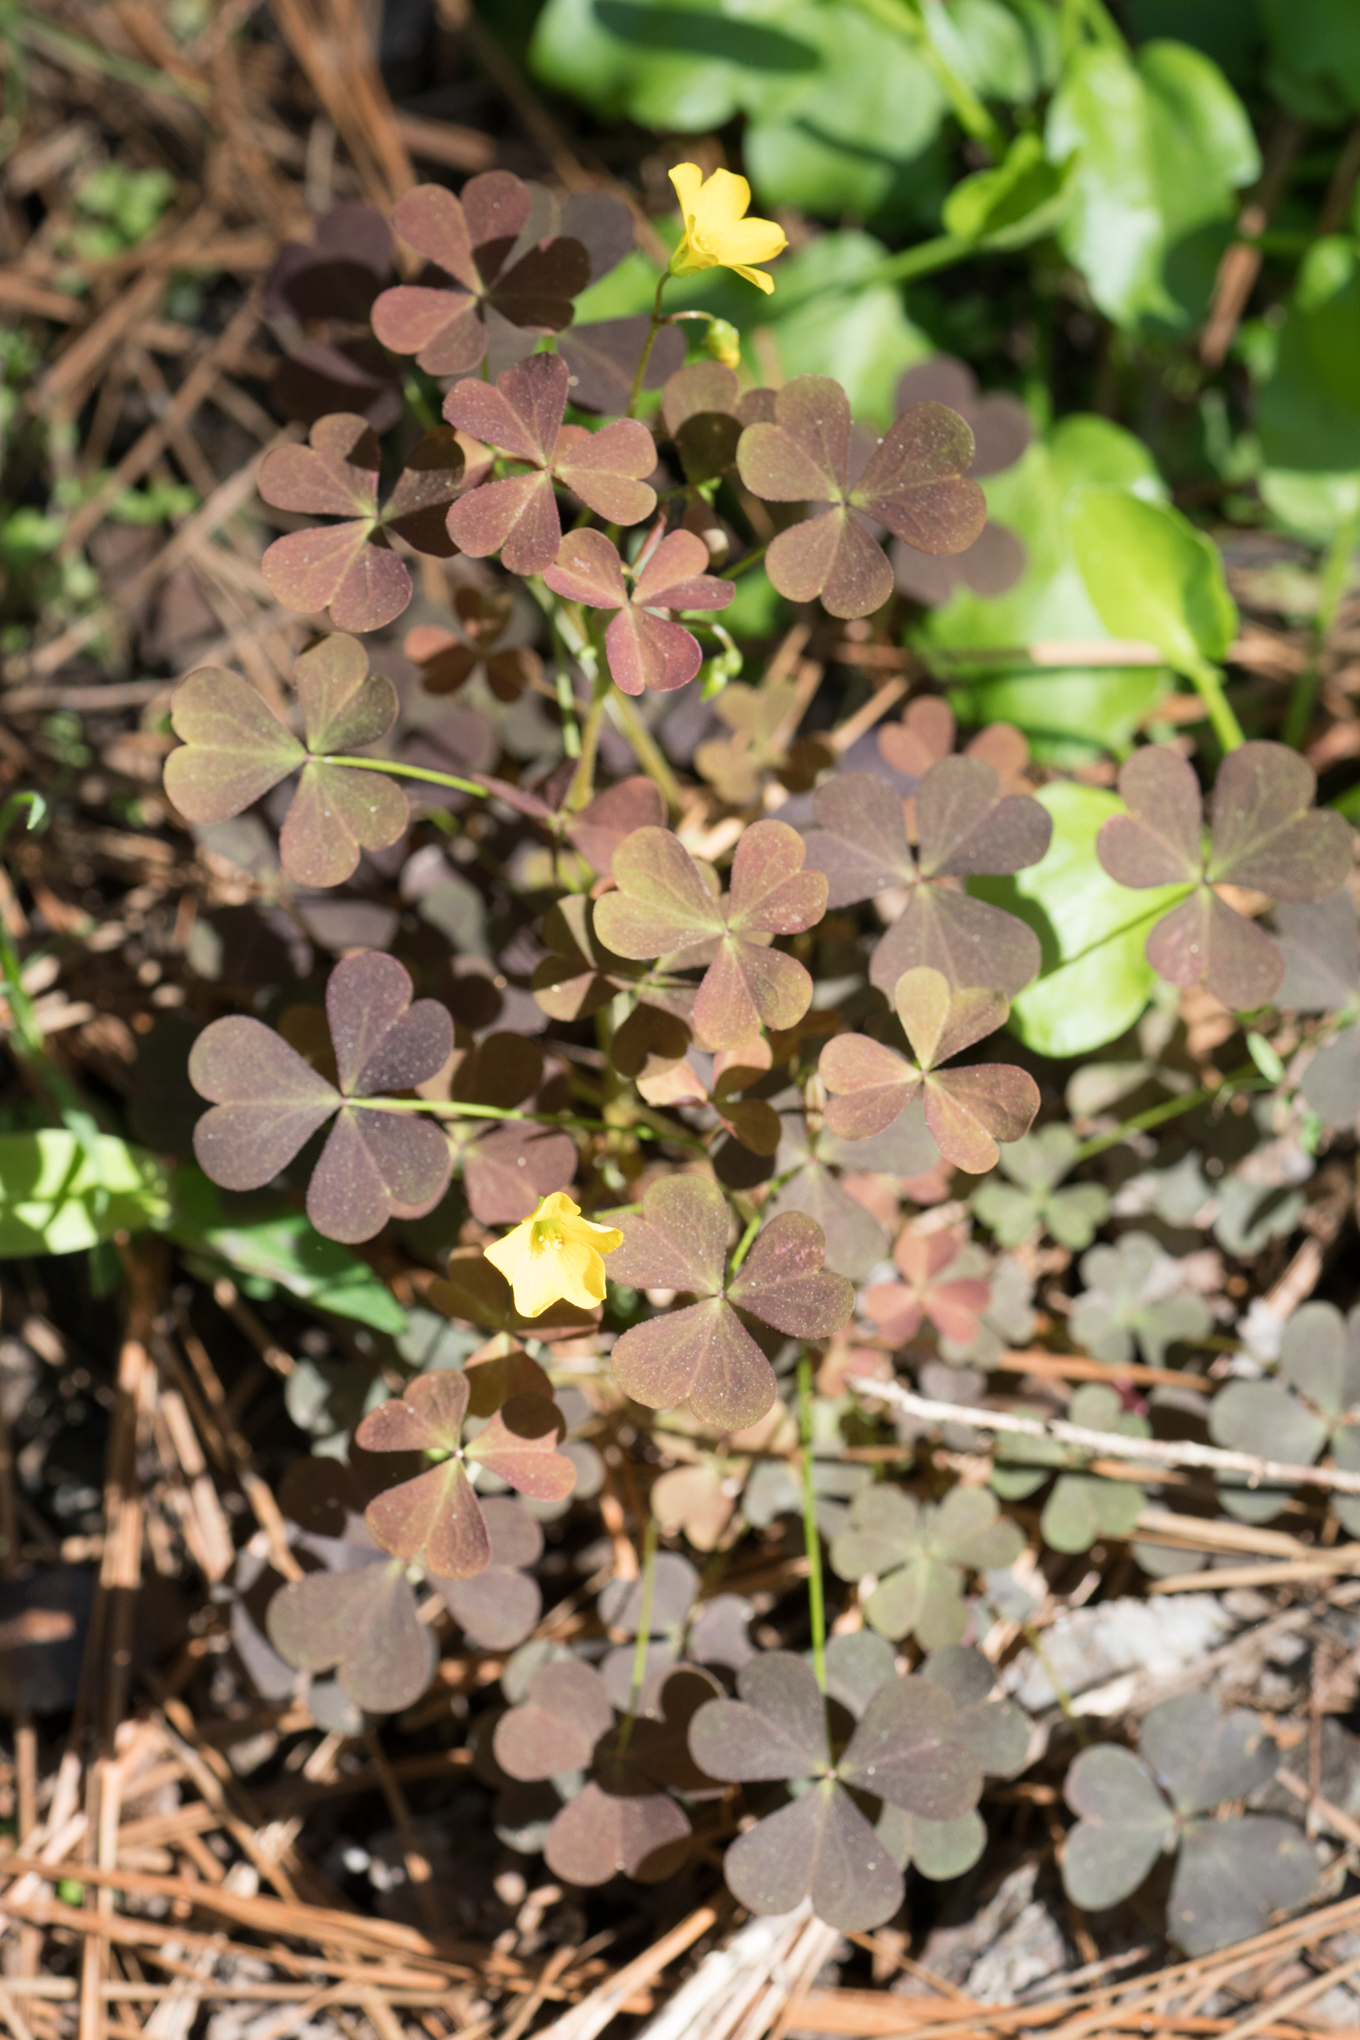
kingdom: Plantae
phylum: Tracheophyta
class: Magnoliopsida
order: Oxalidales
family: Oxalidaceae
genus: Oxalis
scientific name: Oxalis corniculata
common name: Procumbent yellow-sorrel
